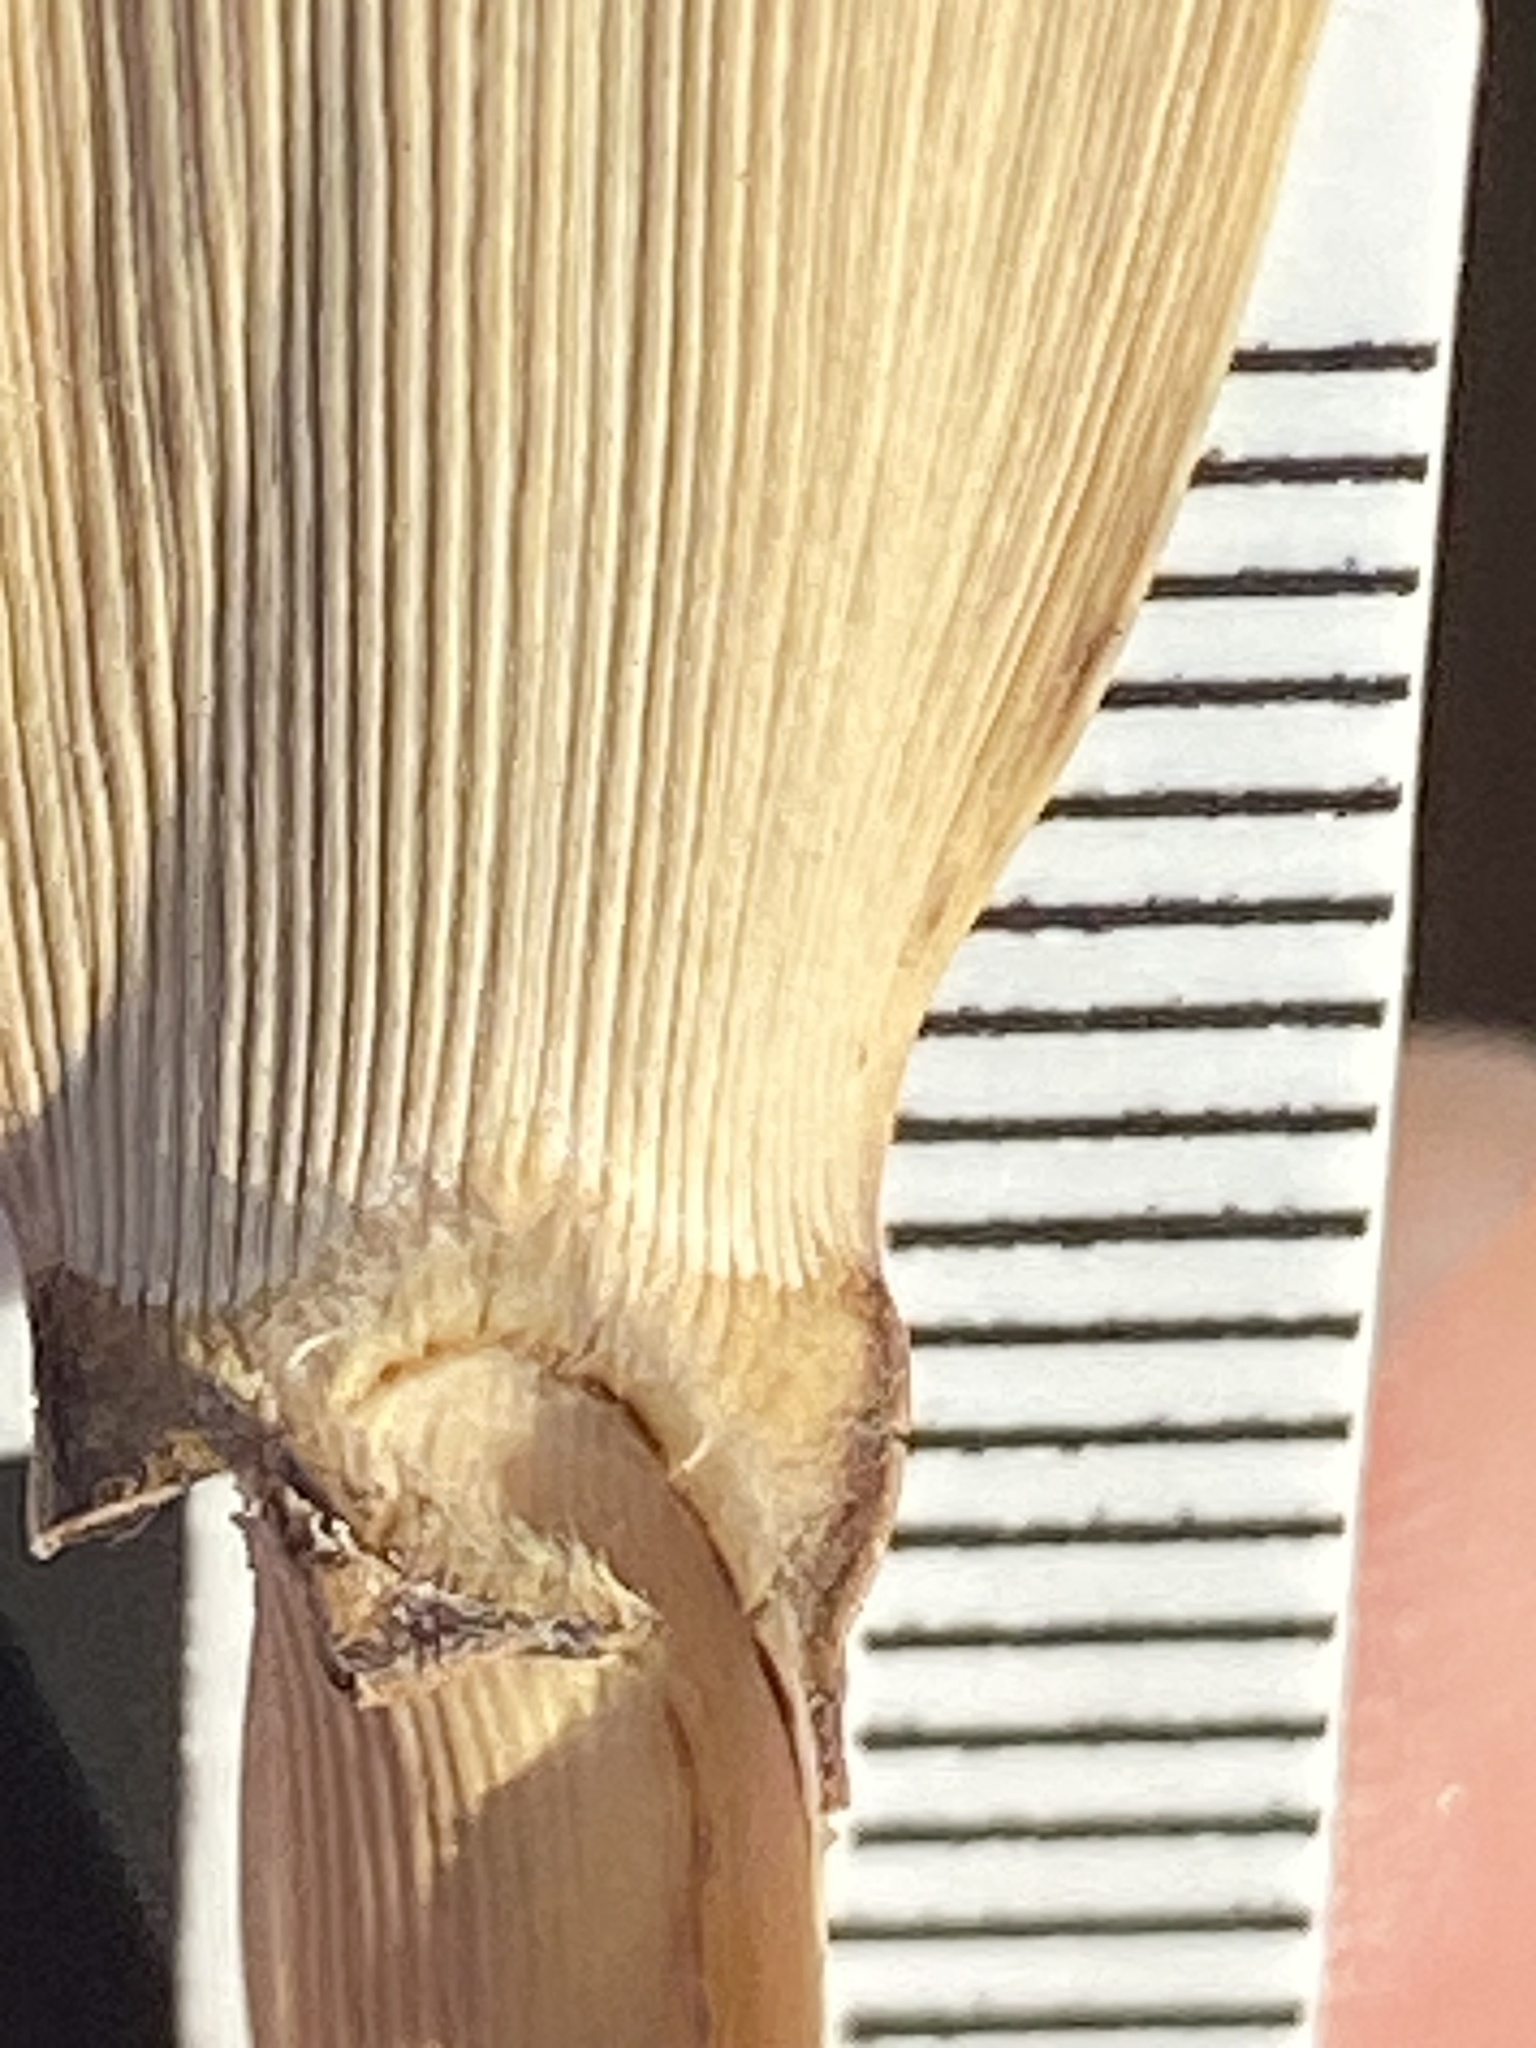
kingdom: Plantae
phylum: Tracheophyta
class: Liliopsida
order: Poales
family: Poaceae
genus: Phragmites
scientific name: Phragmites australis
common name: Common reed
